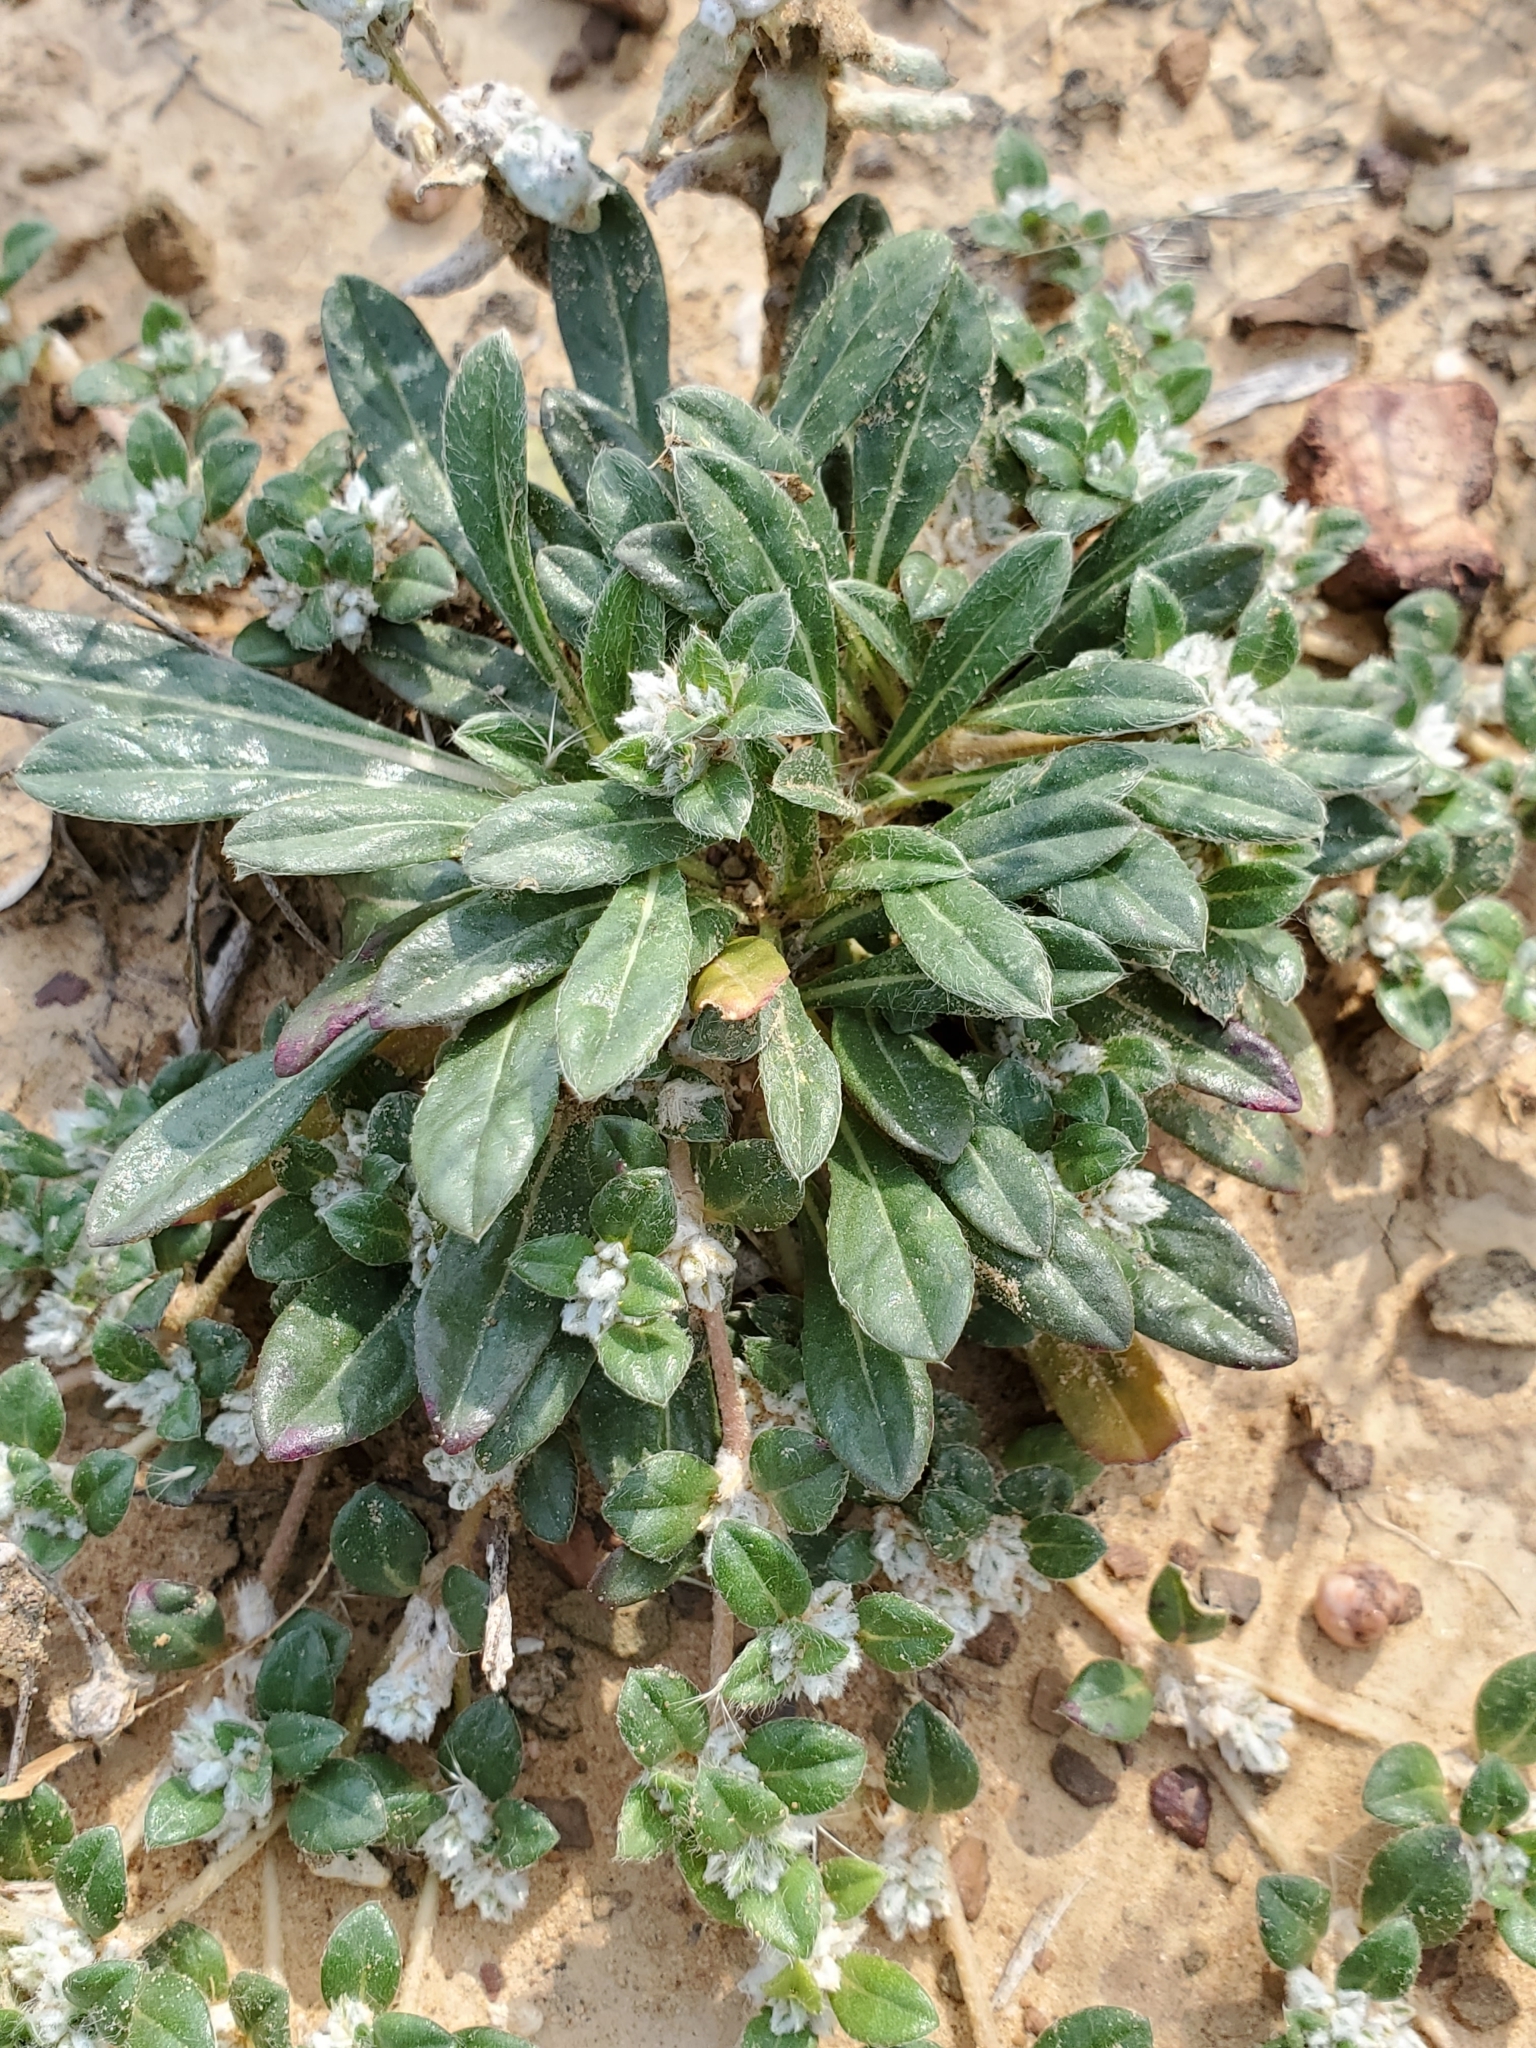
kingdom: Plantae
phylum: Tracheophyta
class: Magnoliopsida
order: Caryophyllales
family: Amaranthaceae
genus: Gomphrena
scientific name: Gomphrena lanuparonychioides
